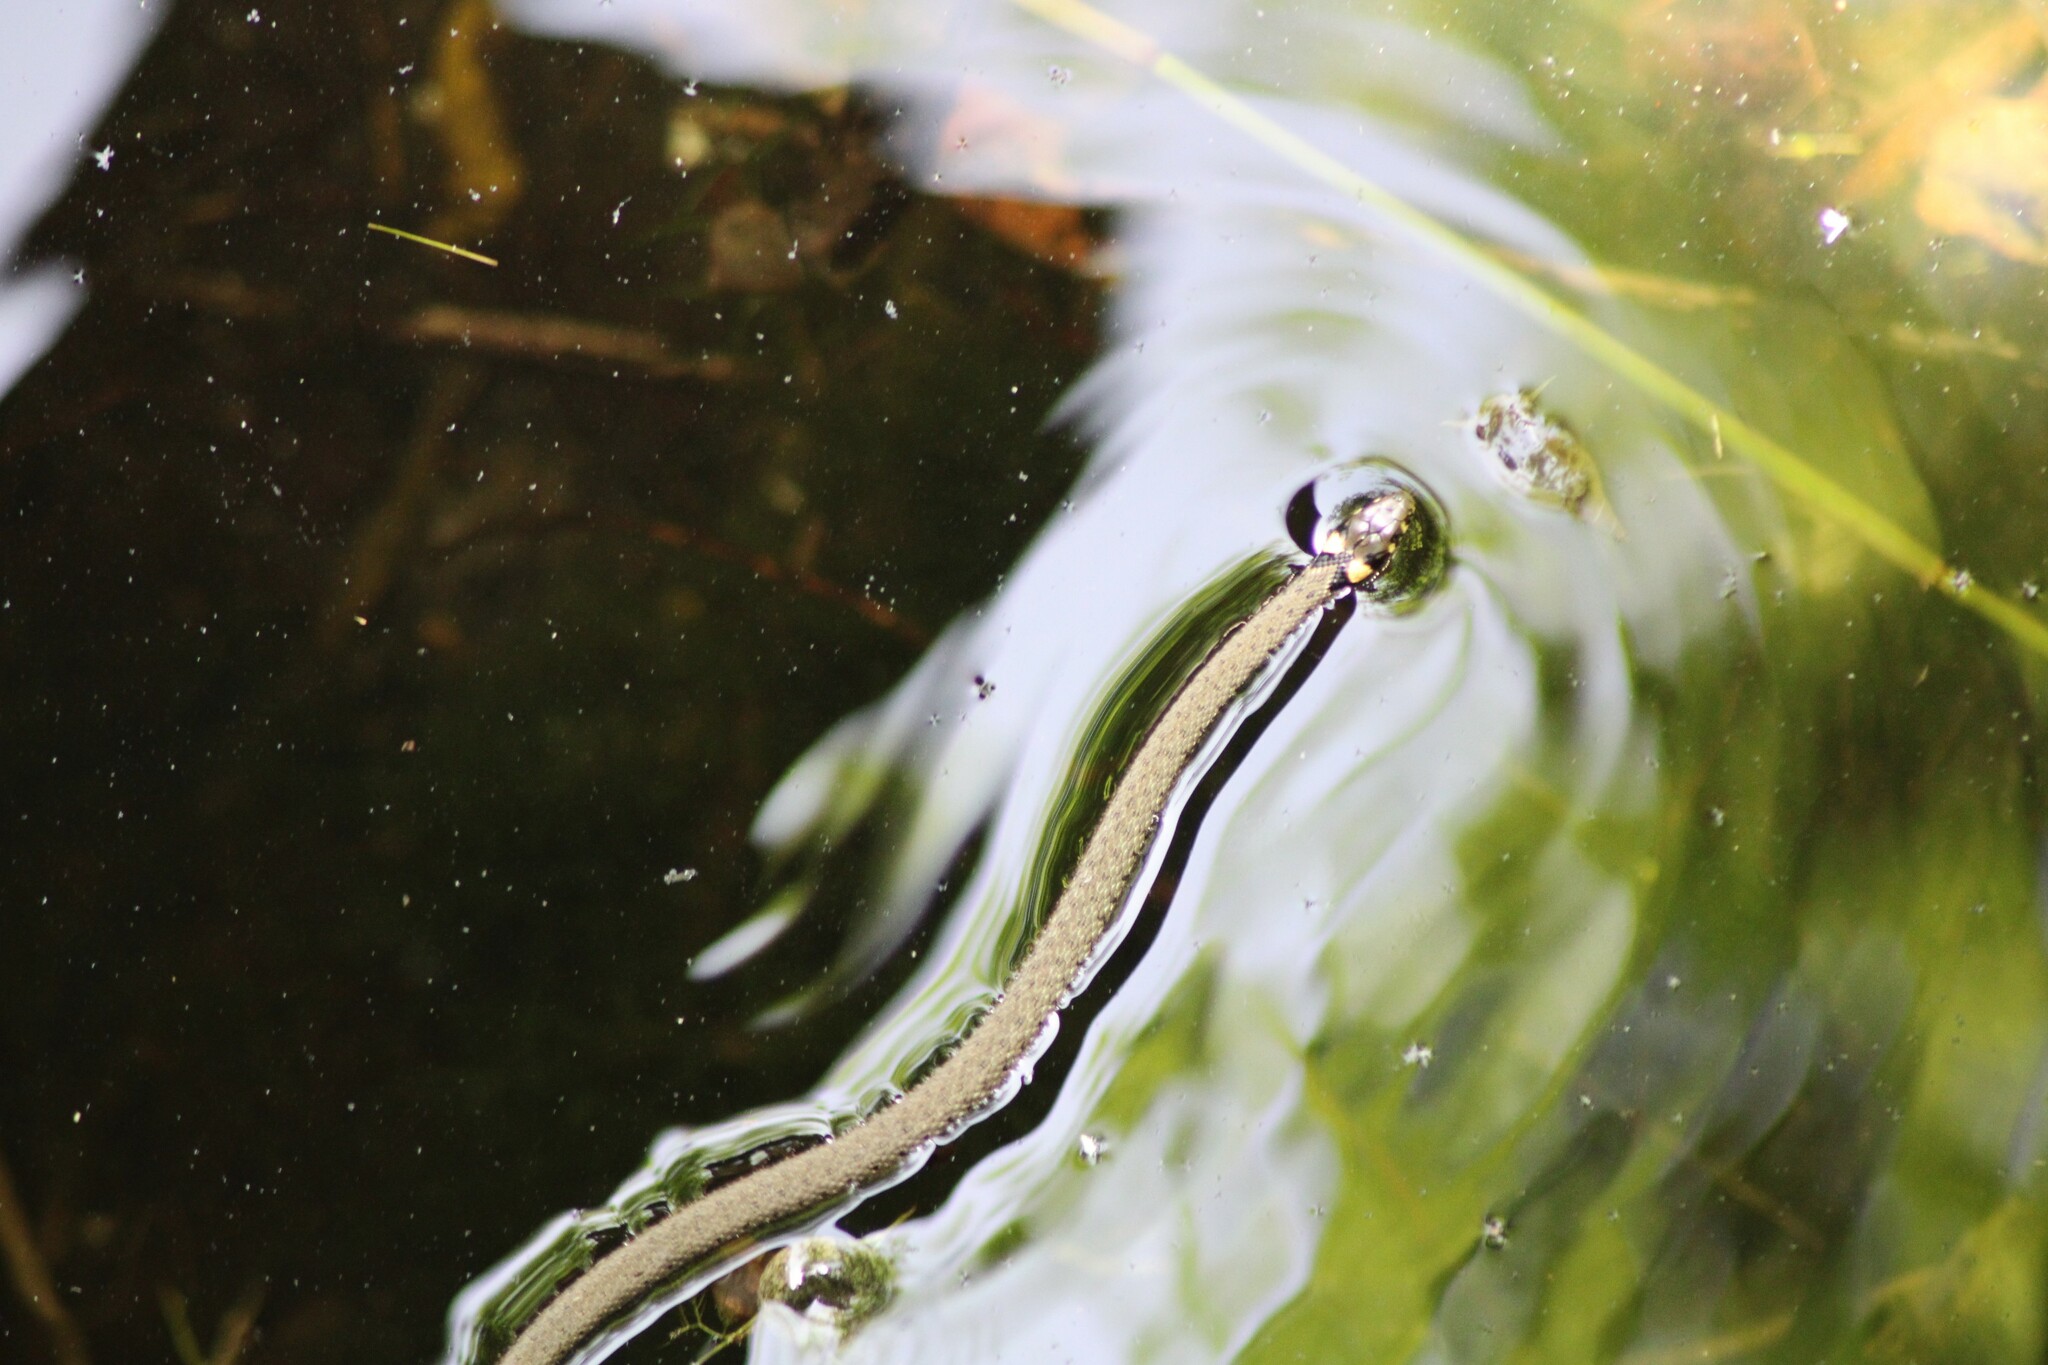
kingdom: Animalia
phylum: Chordata
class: Squamata
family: Colubridae
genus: Natrix
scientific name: Natrix natrix
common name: Grass snake
